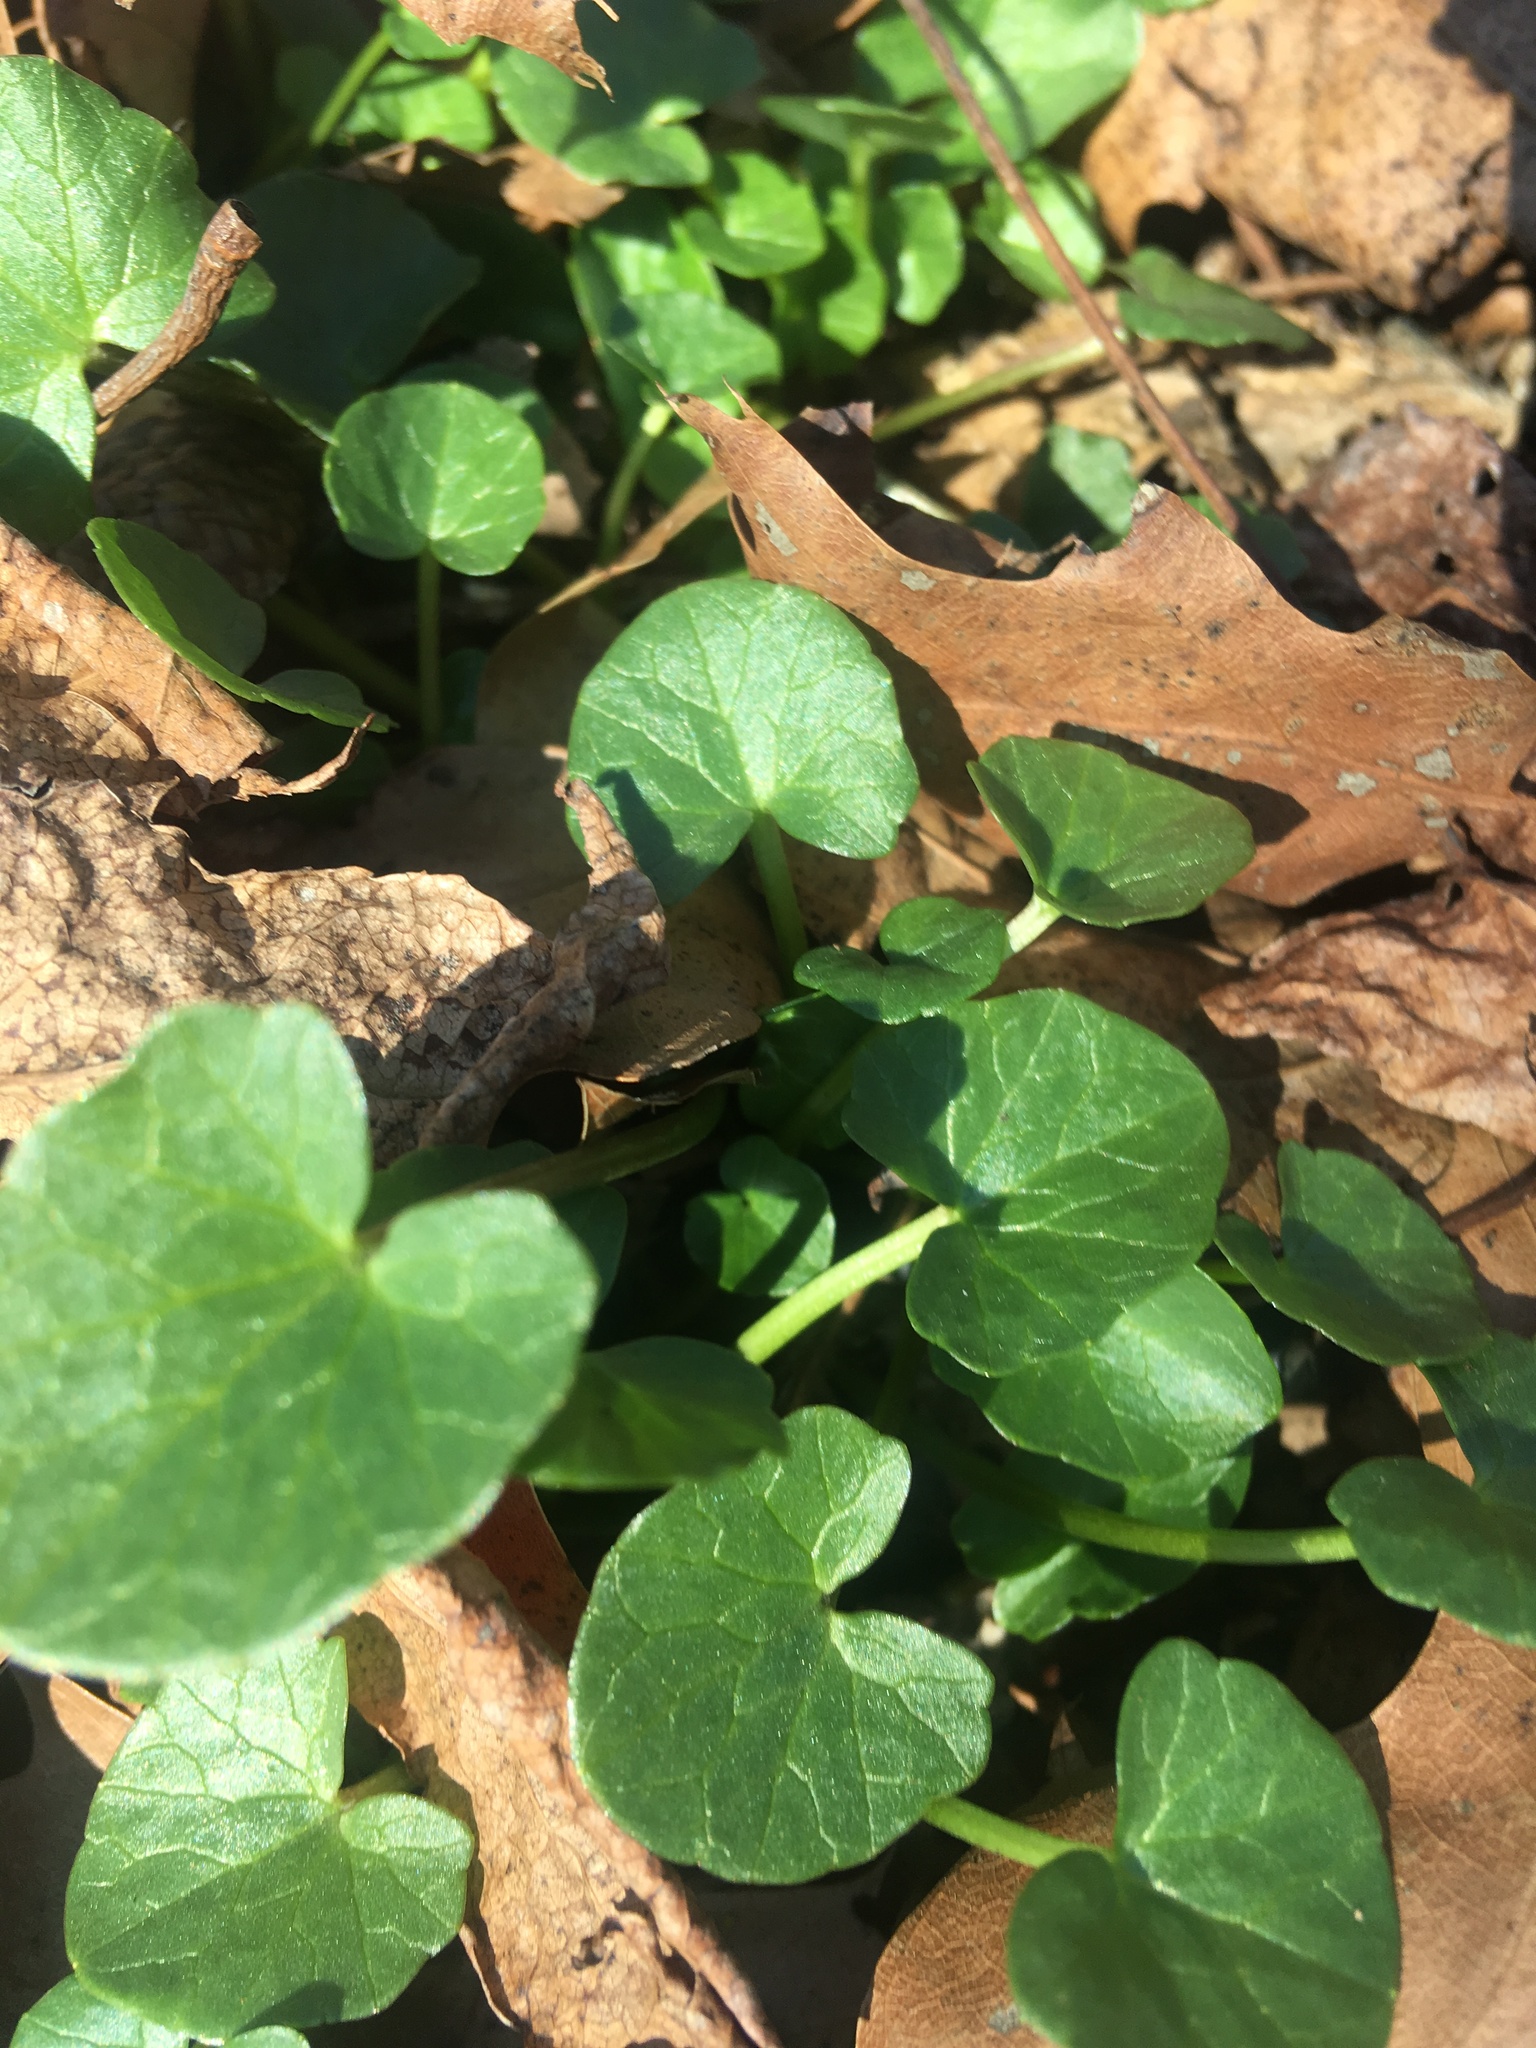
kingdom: Plantae
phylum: Tracheophyta
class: Magnoliopsida
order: Ranunculales
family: Ranunculaceae
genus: Ficaria
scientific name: Ficaria verna
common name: Lesser celandine
